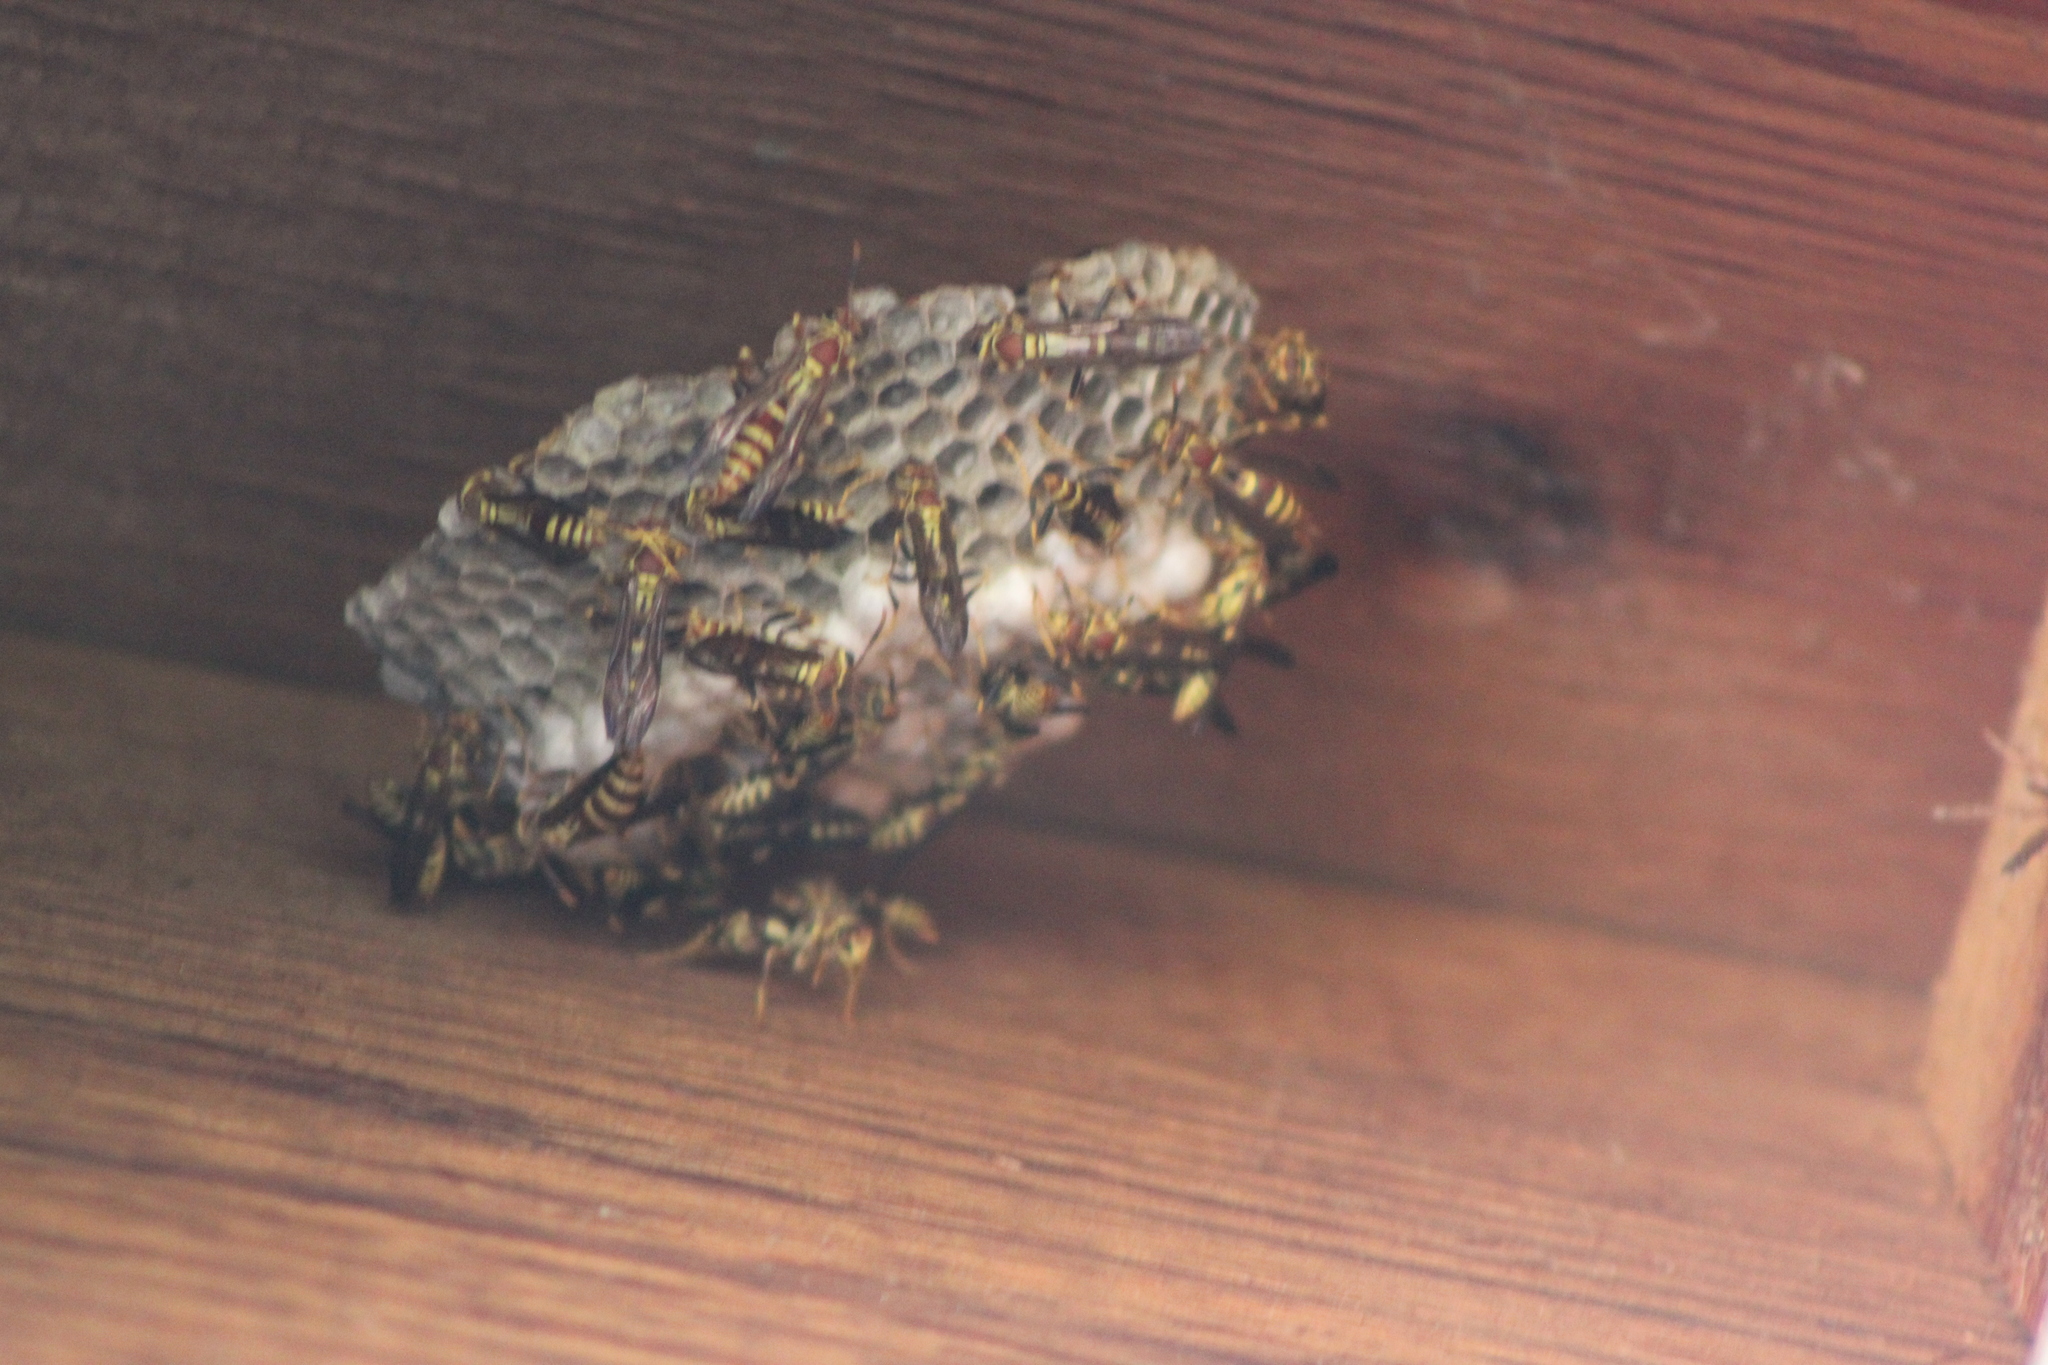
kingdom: Animalia
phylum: Arthropoda
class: Insecta
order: Hymenoptera
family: Eumenidae
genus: Polistes
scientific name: Polistes exclamans
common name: Paper wasp
